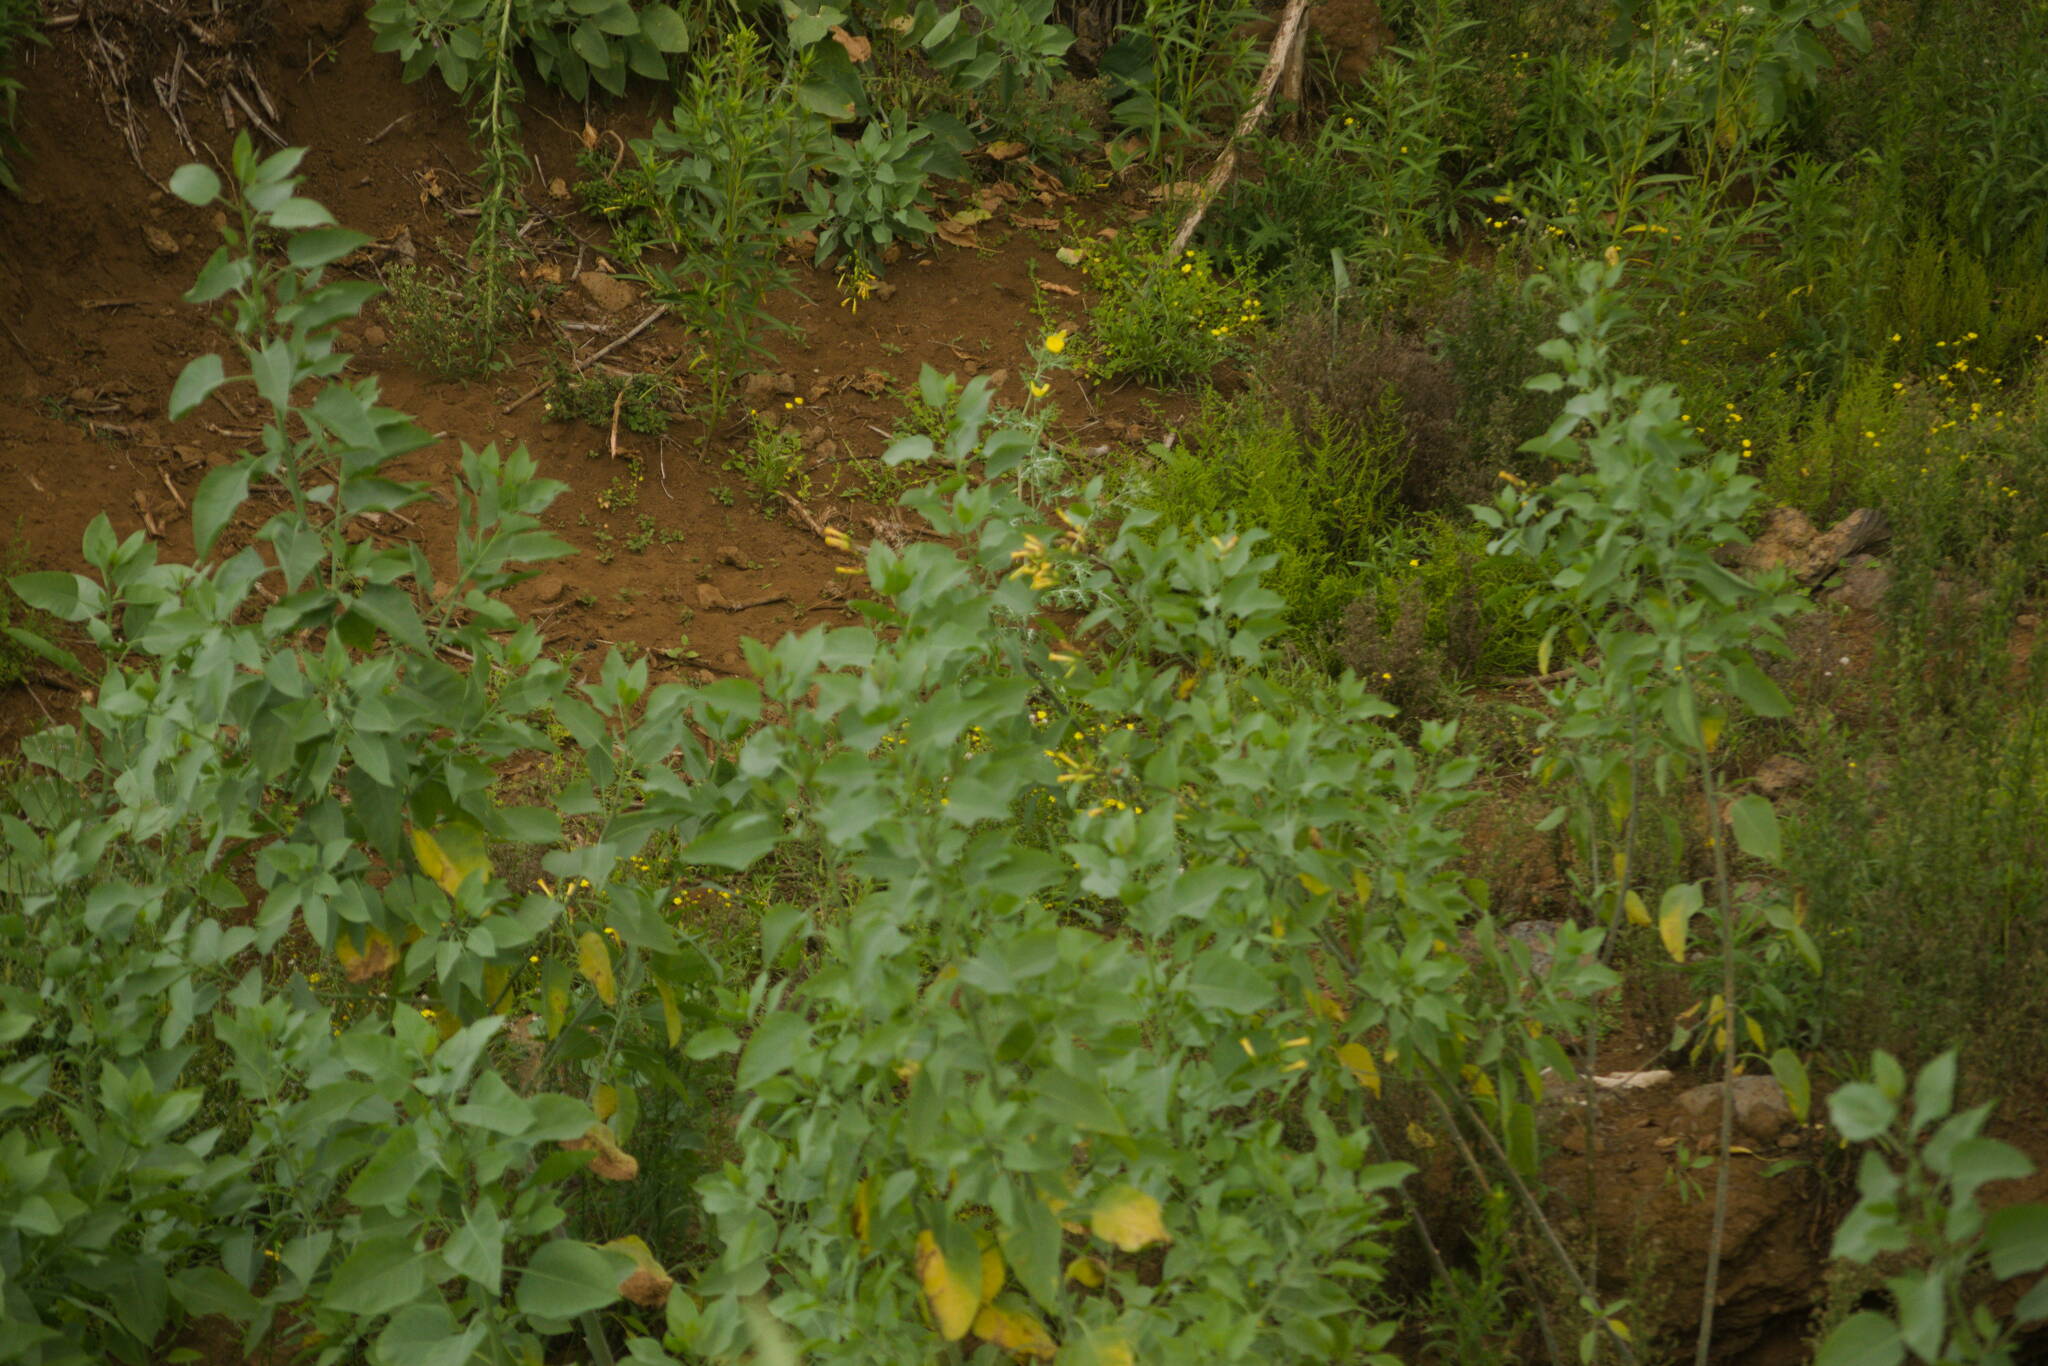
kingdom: Plantae
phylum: Tracheophyta
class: Magnoliopsida
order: Solanales
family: Solanaceae
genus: Nicotiana
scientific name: Nicotiana glauca
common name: Tree tobacco
